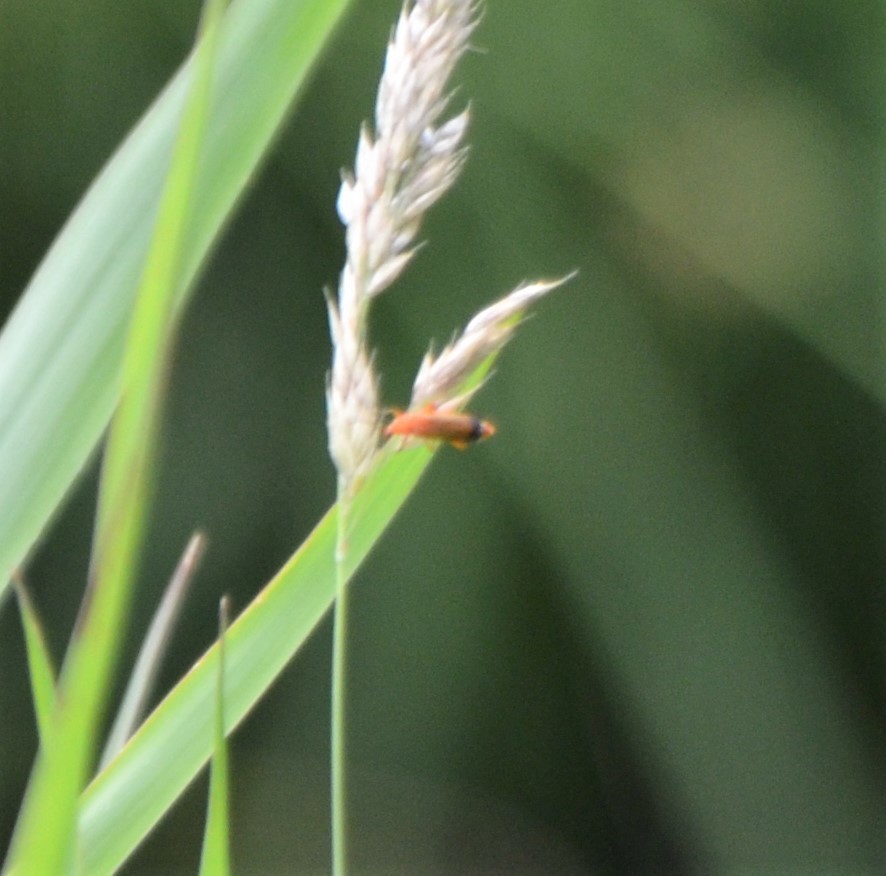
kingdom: Animalia
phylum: Arthropoda
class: Insecta
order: Coleoptera
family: Cantharidae
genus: Rhagonycha
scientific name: Rhagonycha fulva
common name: Common red soldier beetle
